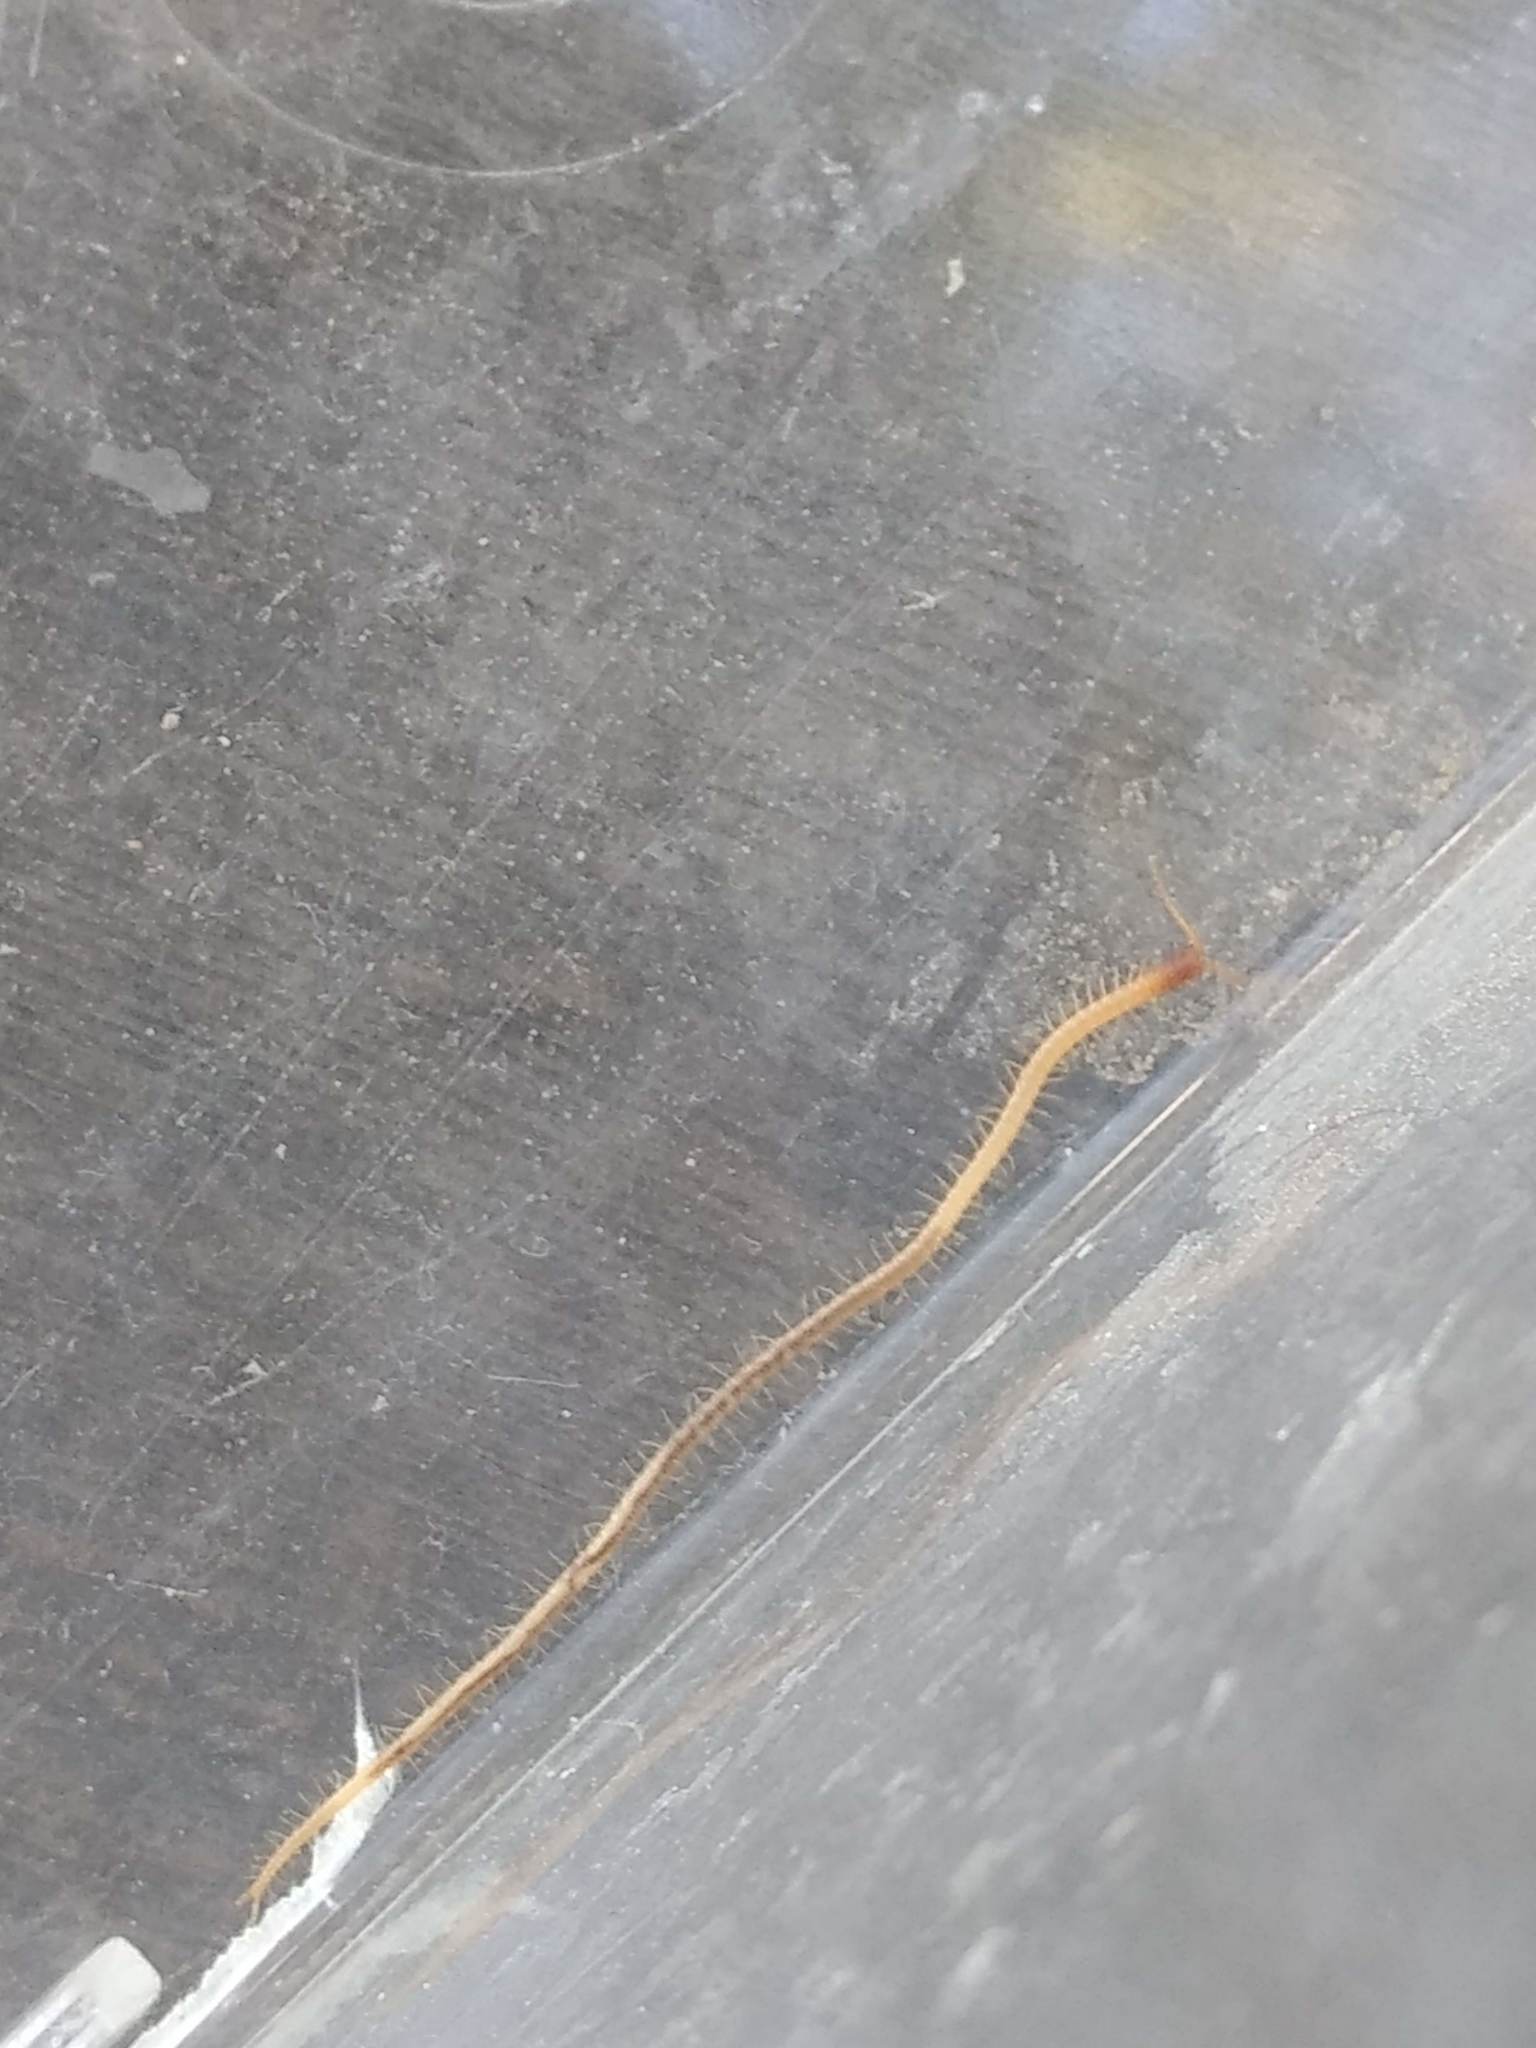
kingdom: Animalia
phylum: Arthropoda
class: Chilopoda
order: Geophilomorpha
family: Geophilidae
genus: Taiyuna
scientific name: Taiyuna isantus
